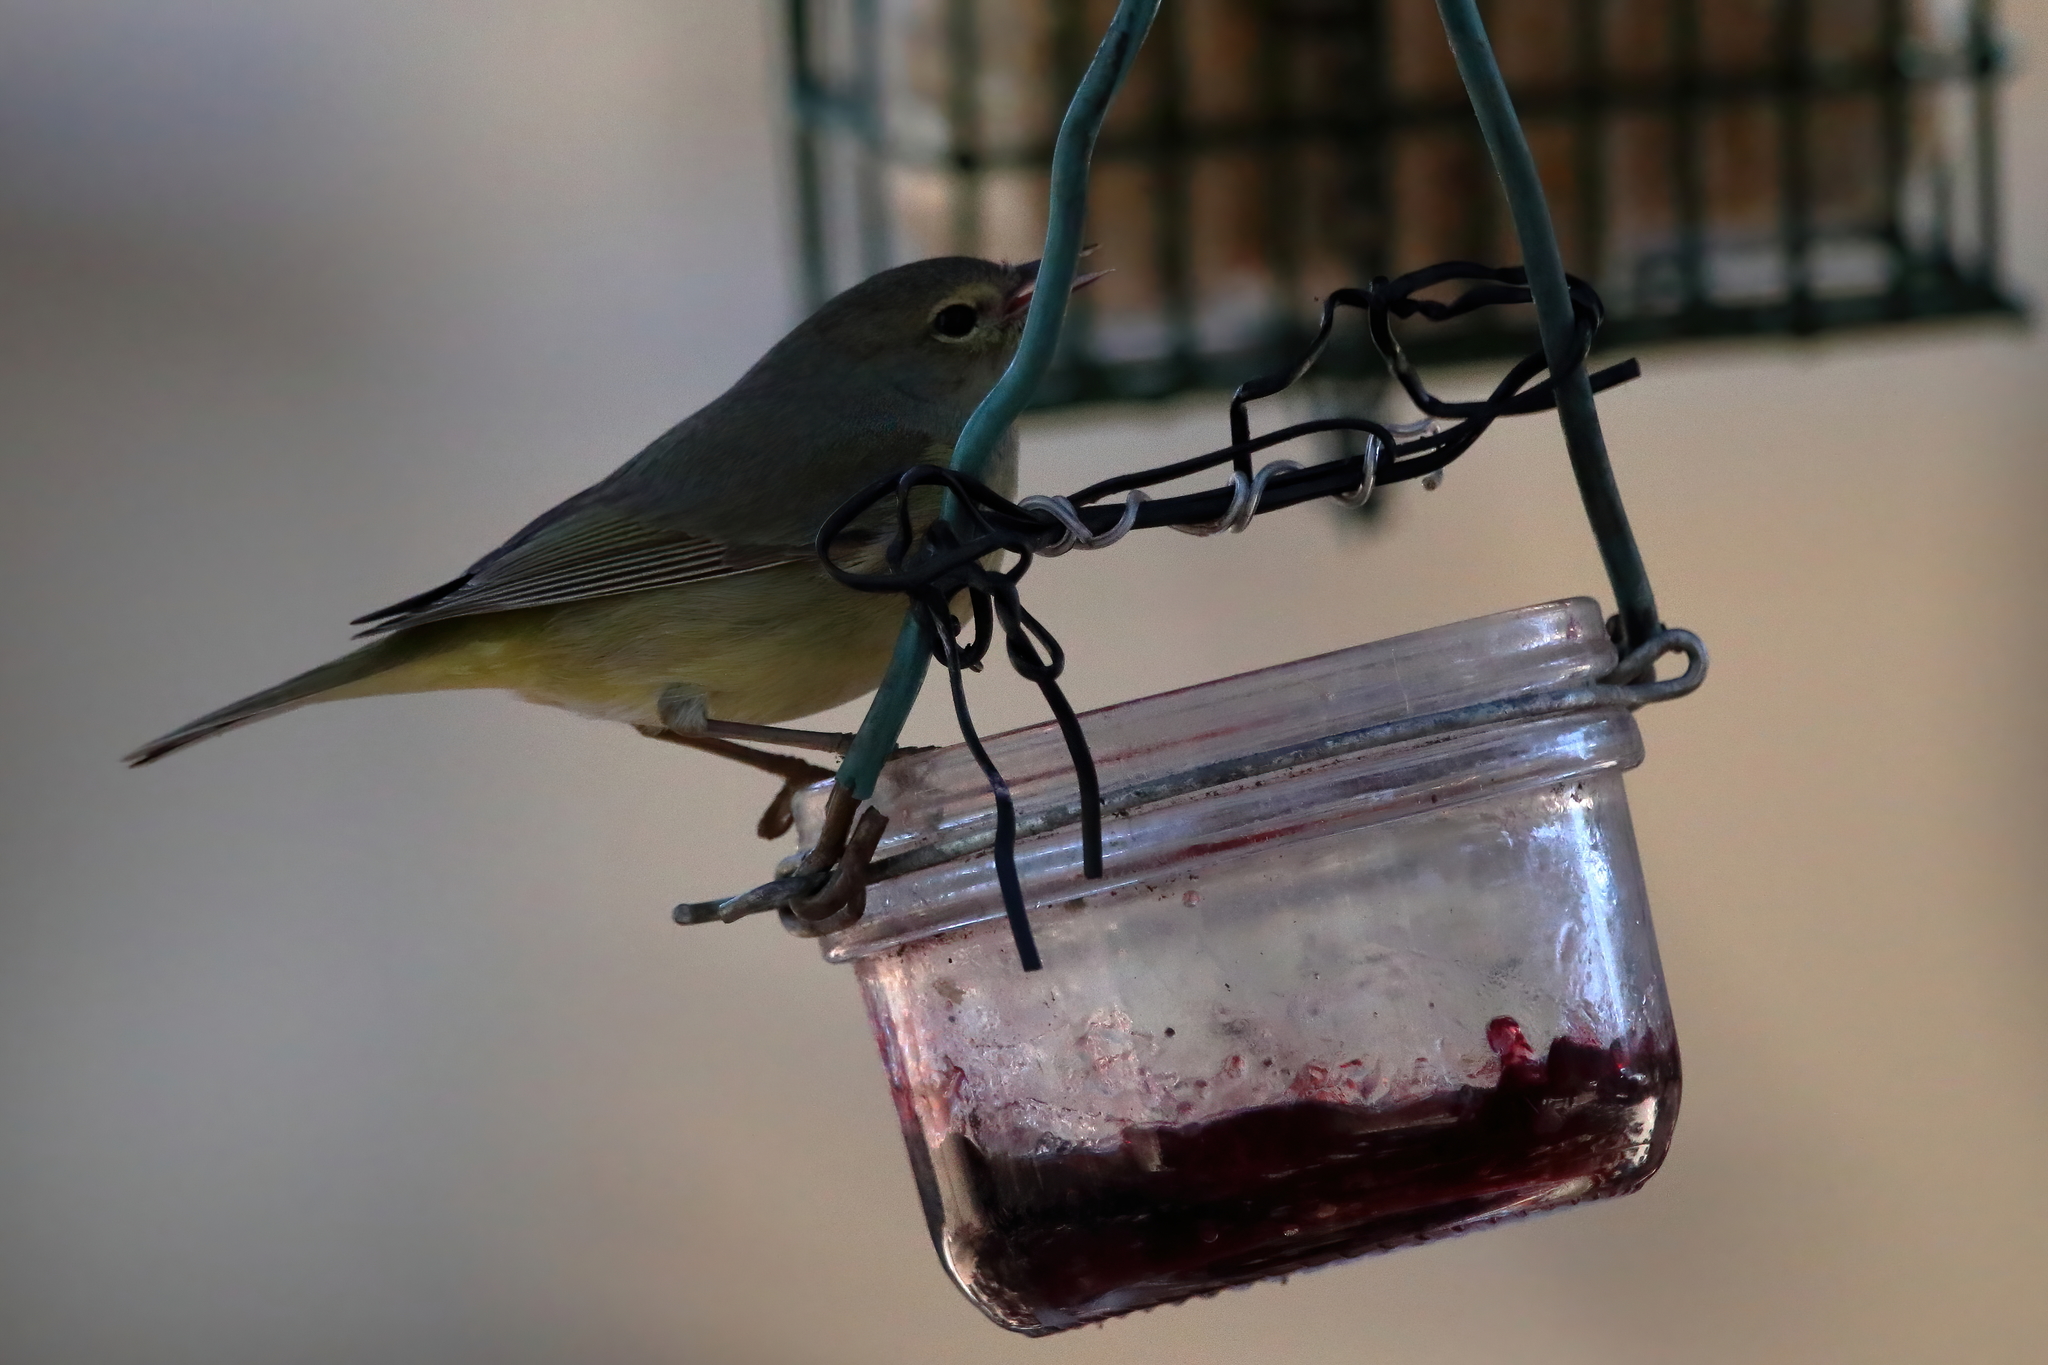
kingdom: Animalia
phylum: Chordata
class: Aves
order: Passeriformes
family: Parulidae
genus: Leiothlypis
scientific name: Leiothlypis celata
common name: Orange-crowned warbler
